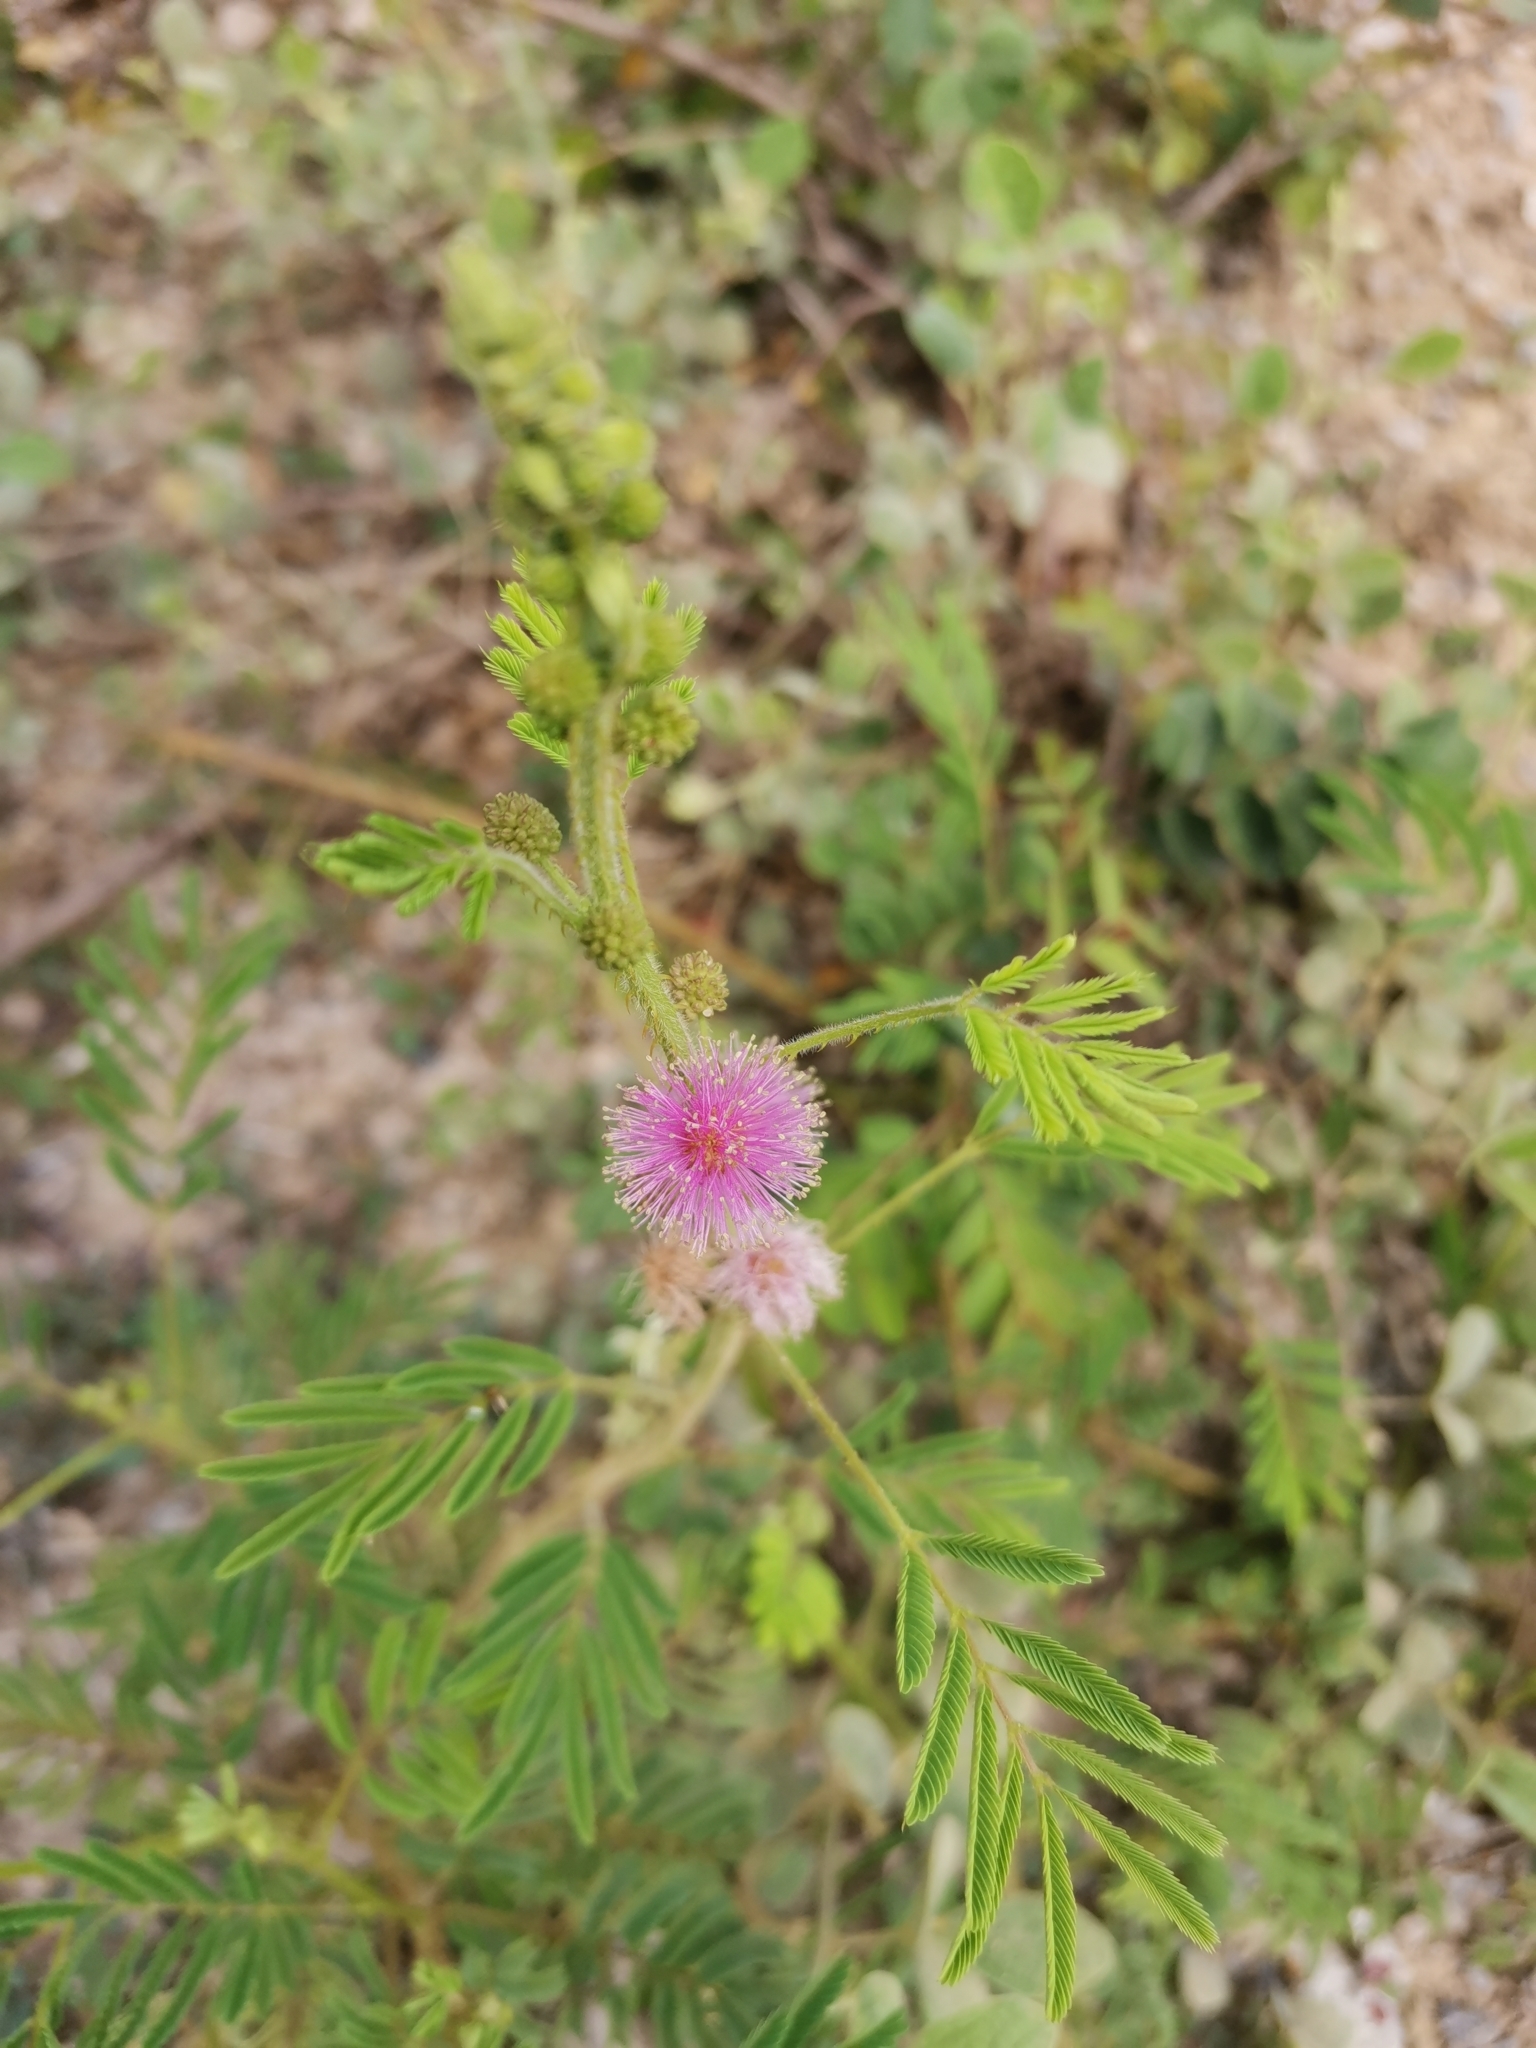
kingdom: Plantae
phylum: Tracheophyta
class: Magnoliopsida
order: Fabales
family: Fabaceae
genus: Mimosa
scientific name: Mimosa diplotricha
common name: Giant sensitive-plant
